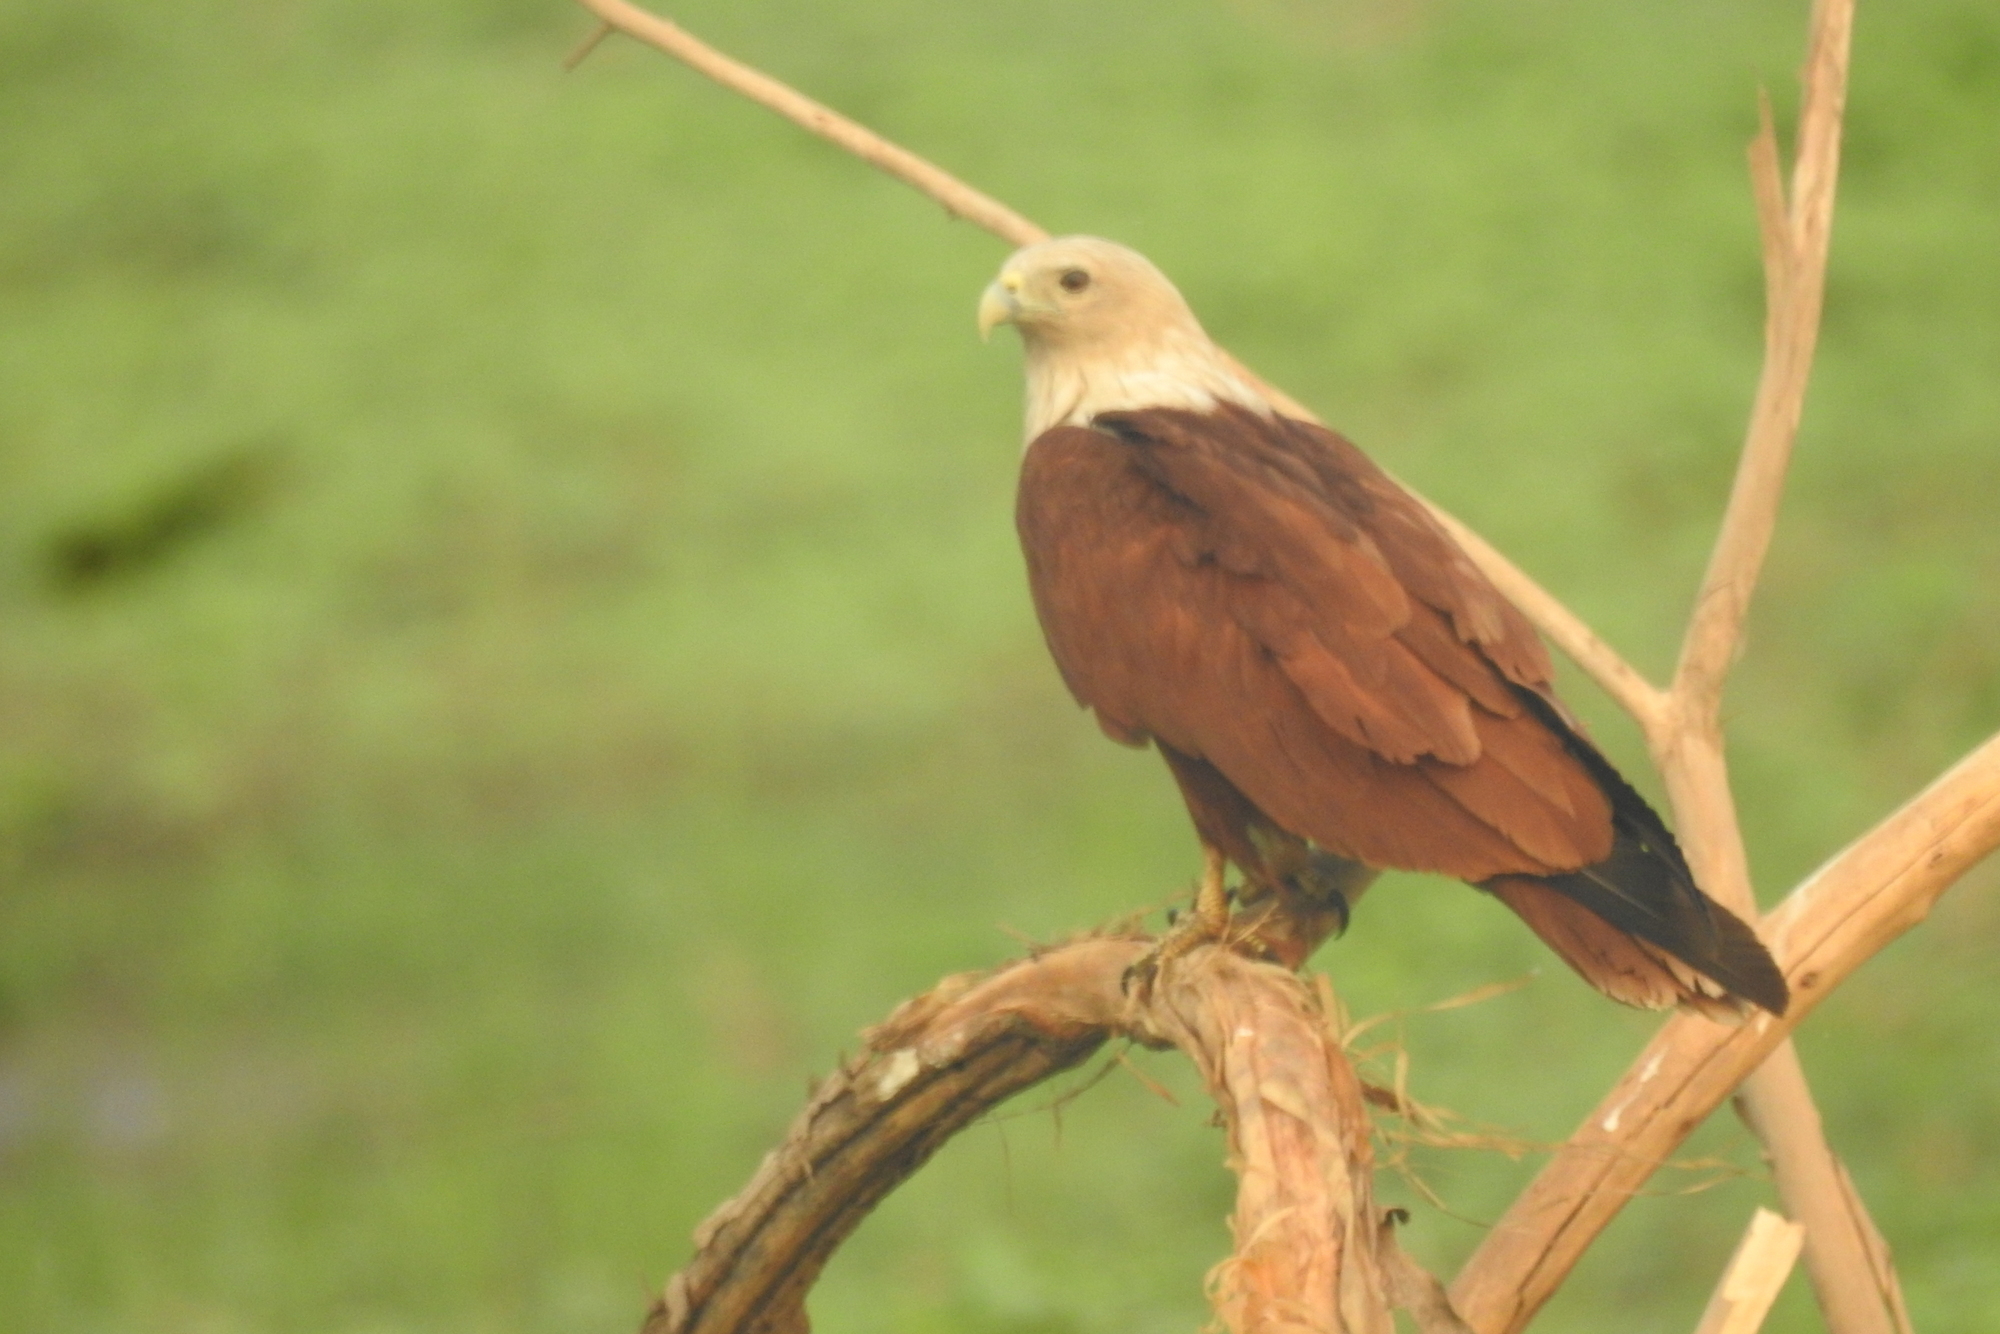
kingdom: Animalia
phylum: Chordata
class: Aves
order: Accipitriformes
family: Accipitridae
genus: Haliastur
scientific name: Haliastur indus
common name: Brahminy kite
